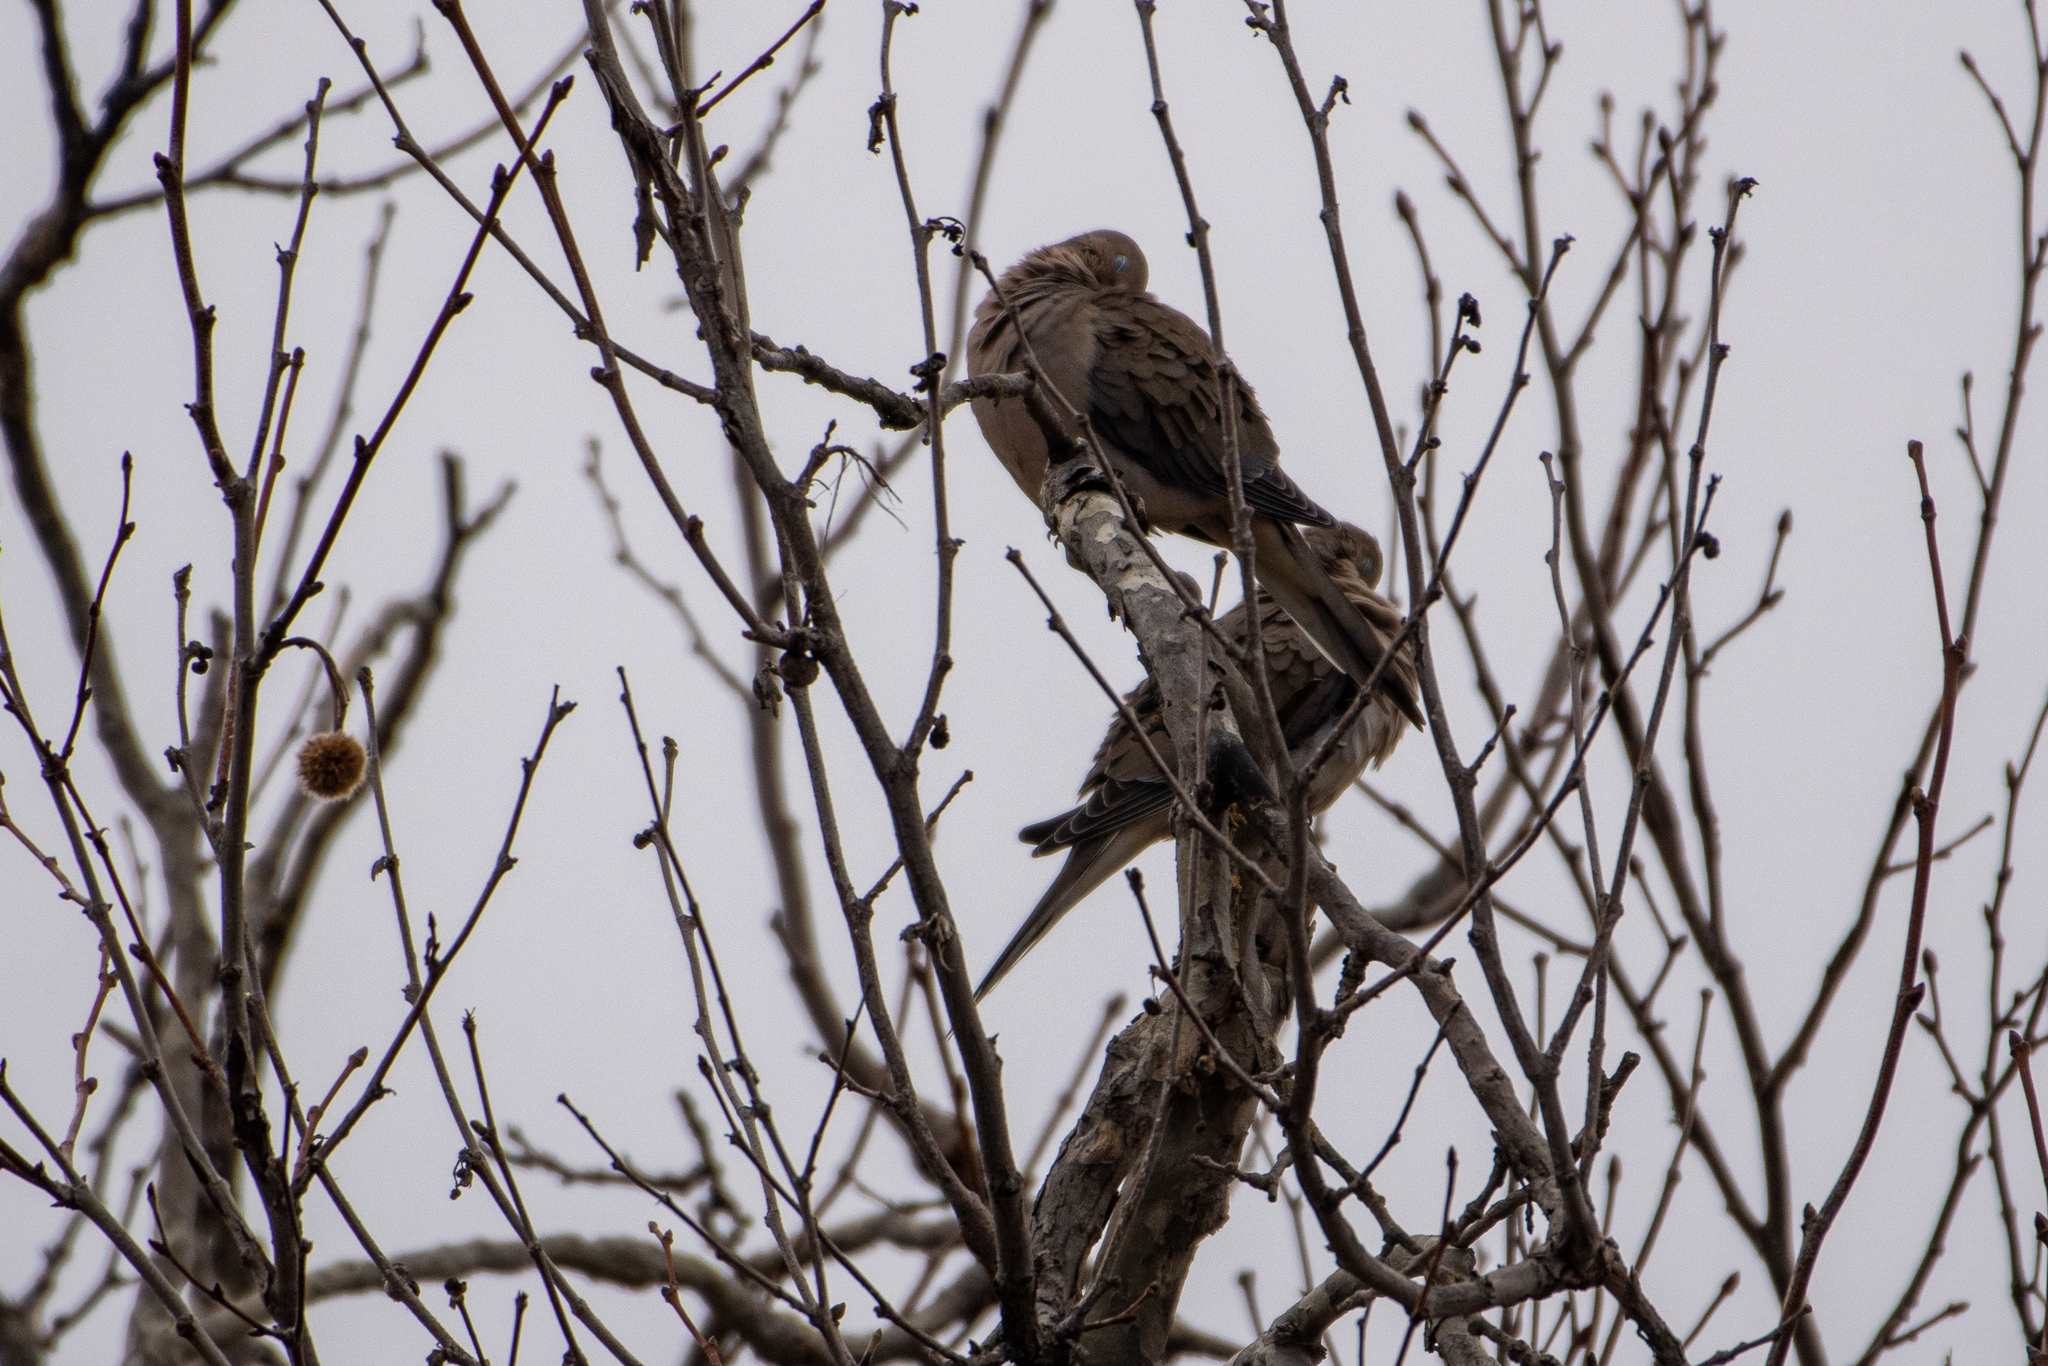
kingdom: Animalia
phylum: Chordata
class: Aves
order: Columbiformes
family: Columbidae
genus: Zenaida
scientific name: Zenaida macroura
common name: Mourning dove
